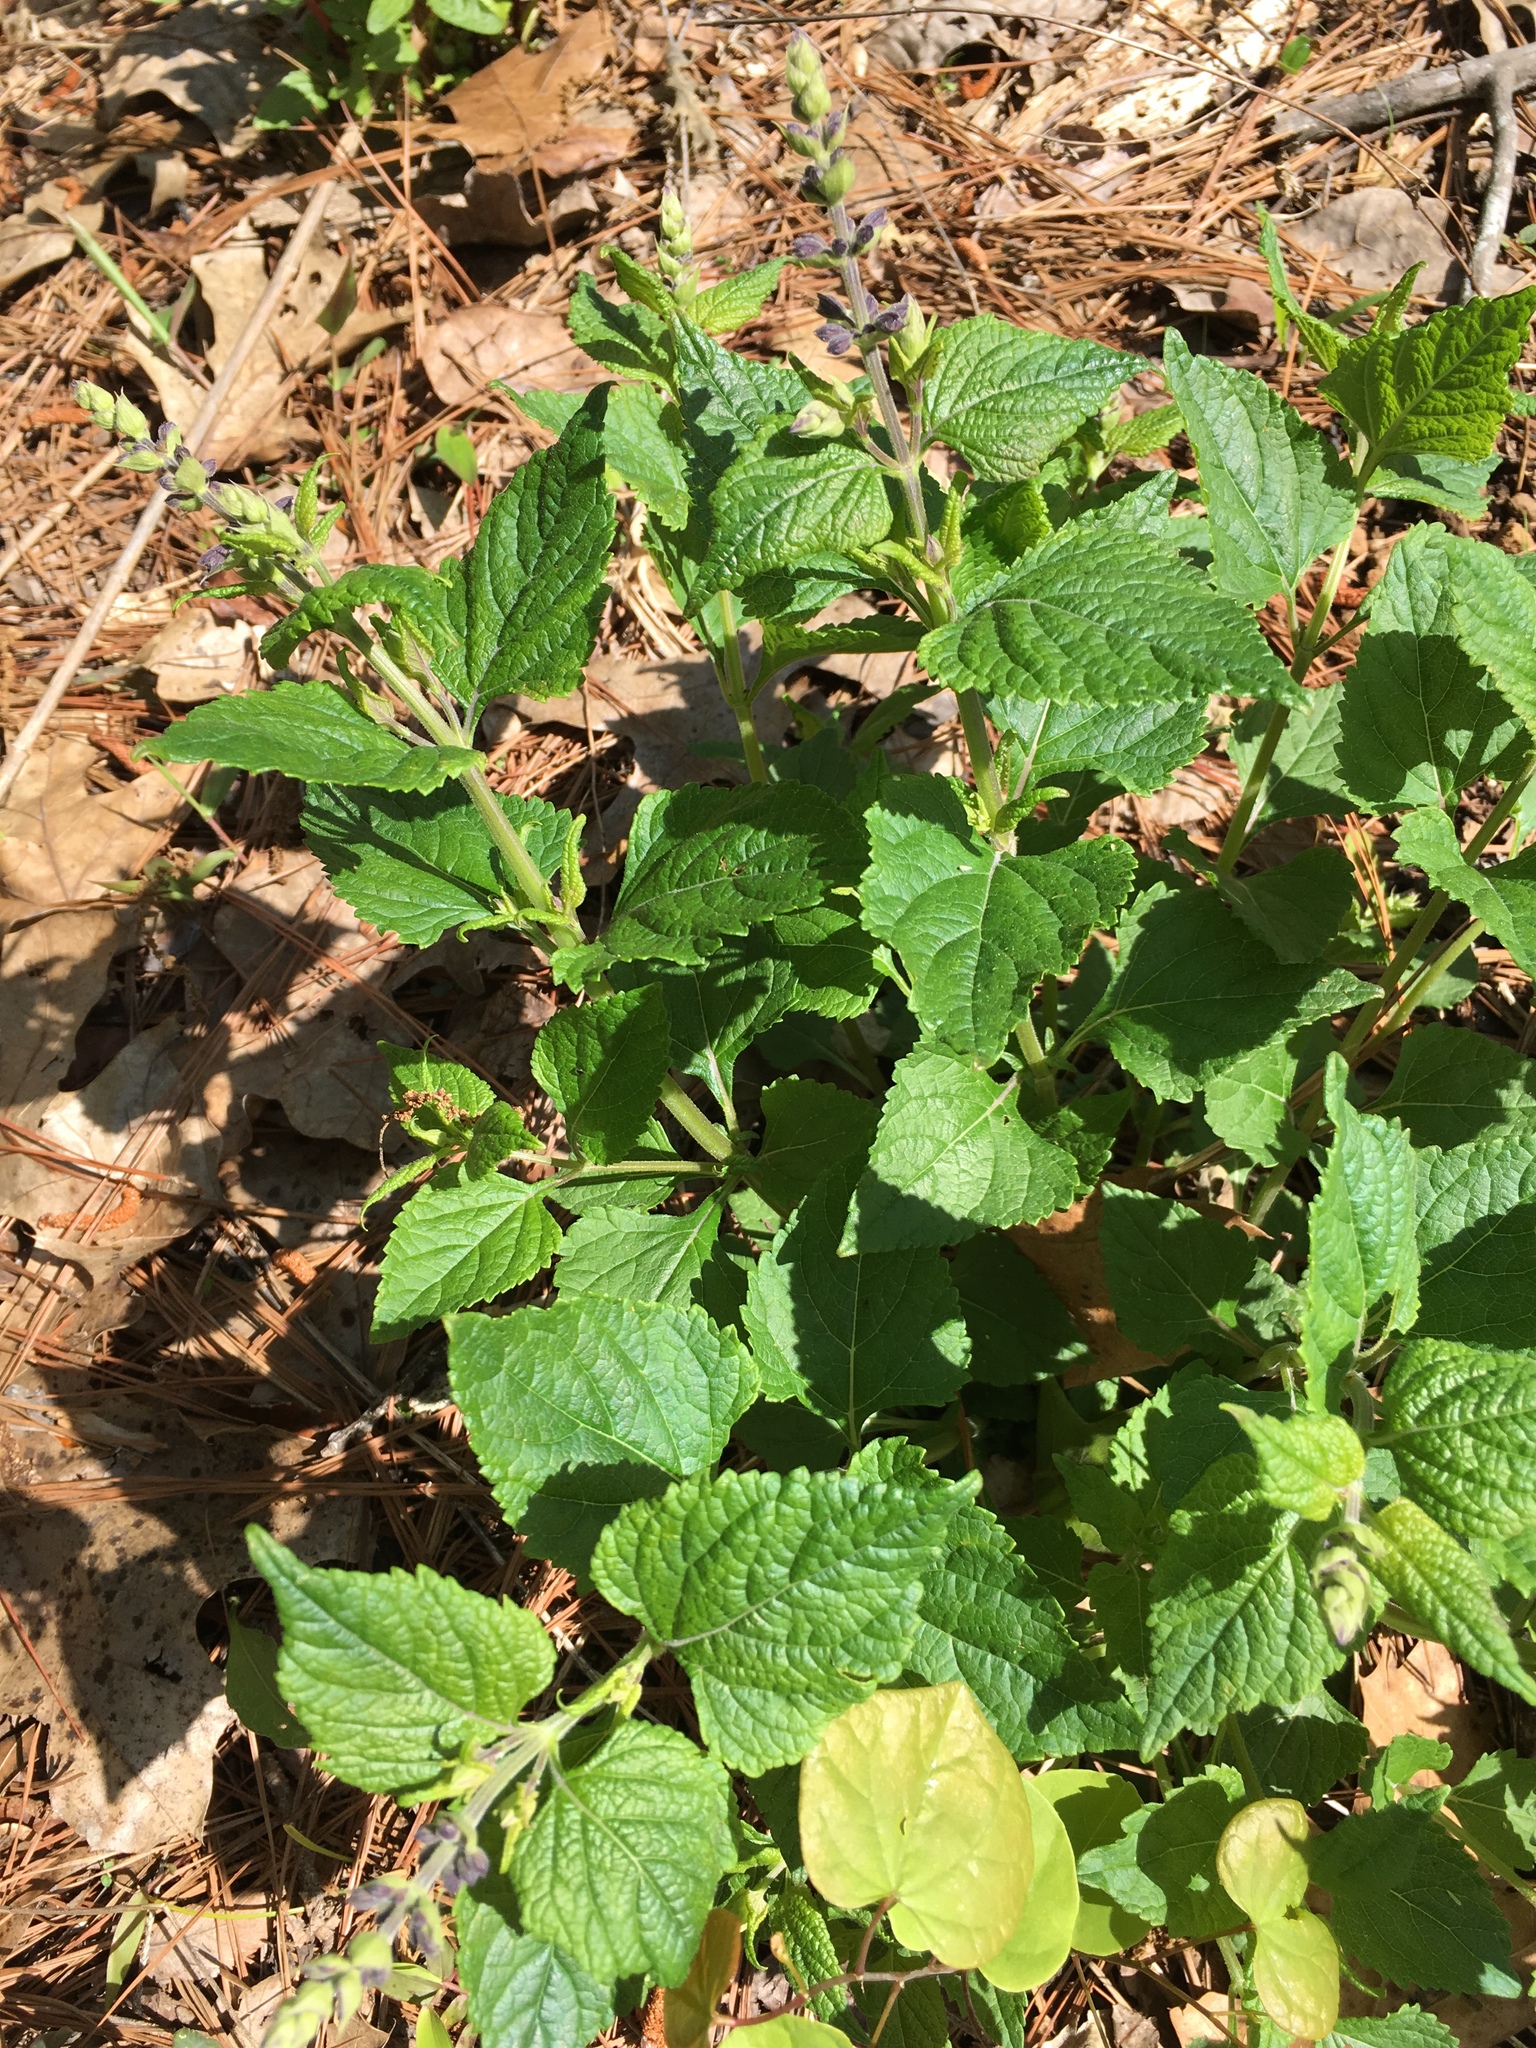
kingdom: Plantae
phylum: Tracheophyta
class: Magnoliopsida
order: Lamiales
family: Lamiaceae
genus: Salvia
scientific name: Salvia urticifolia
